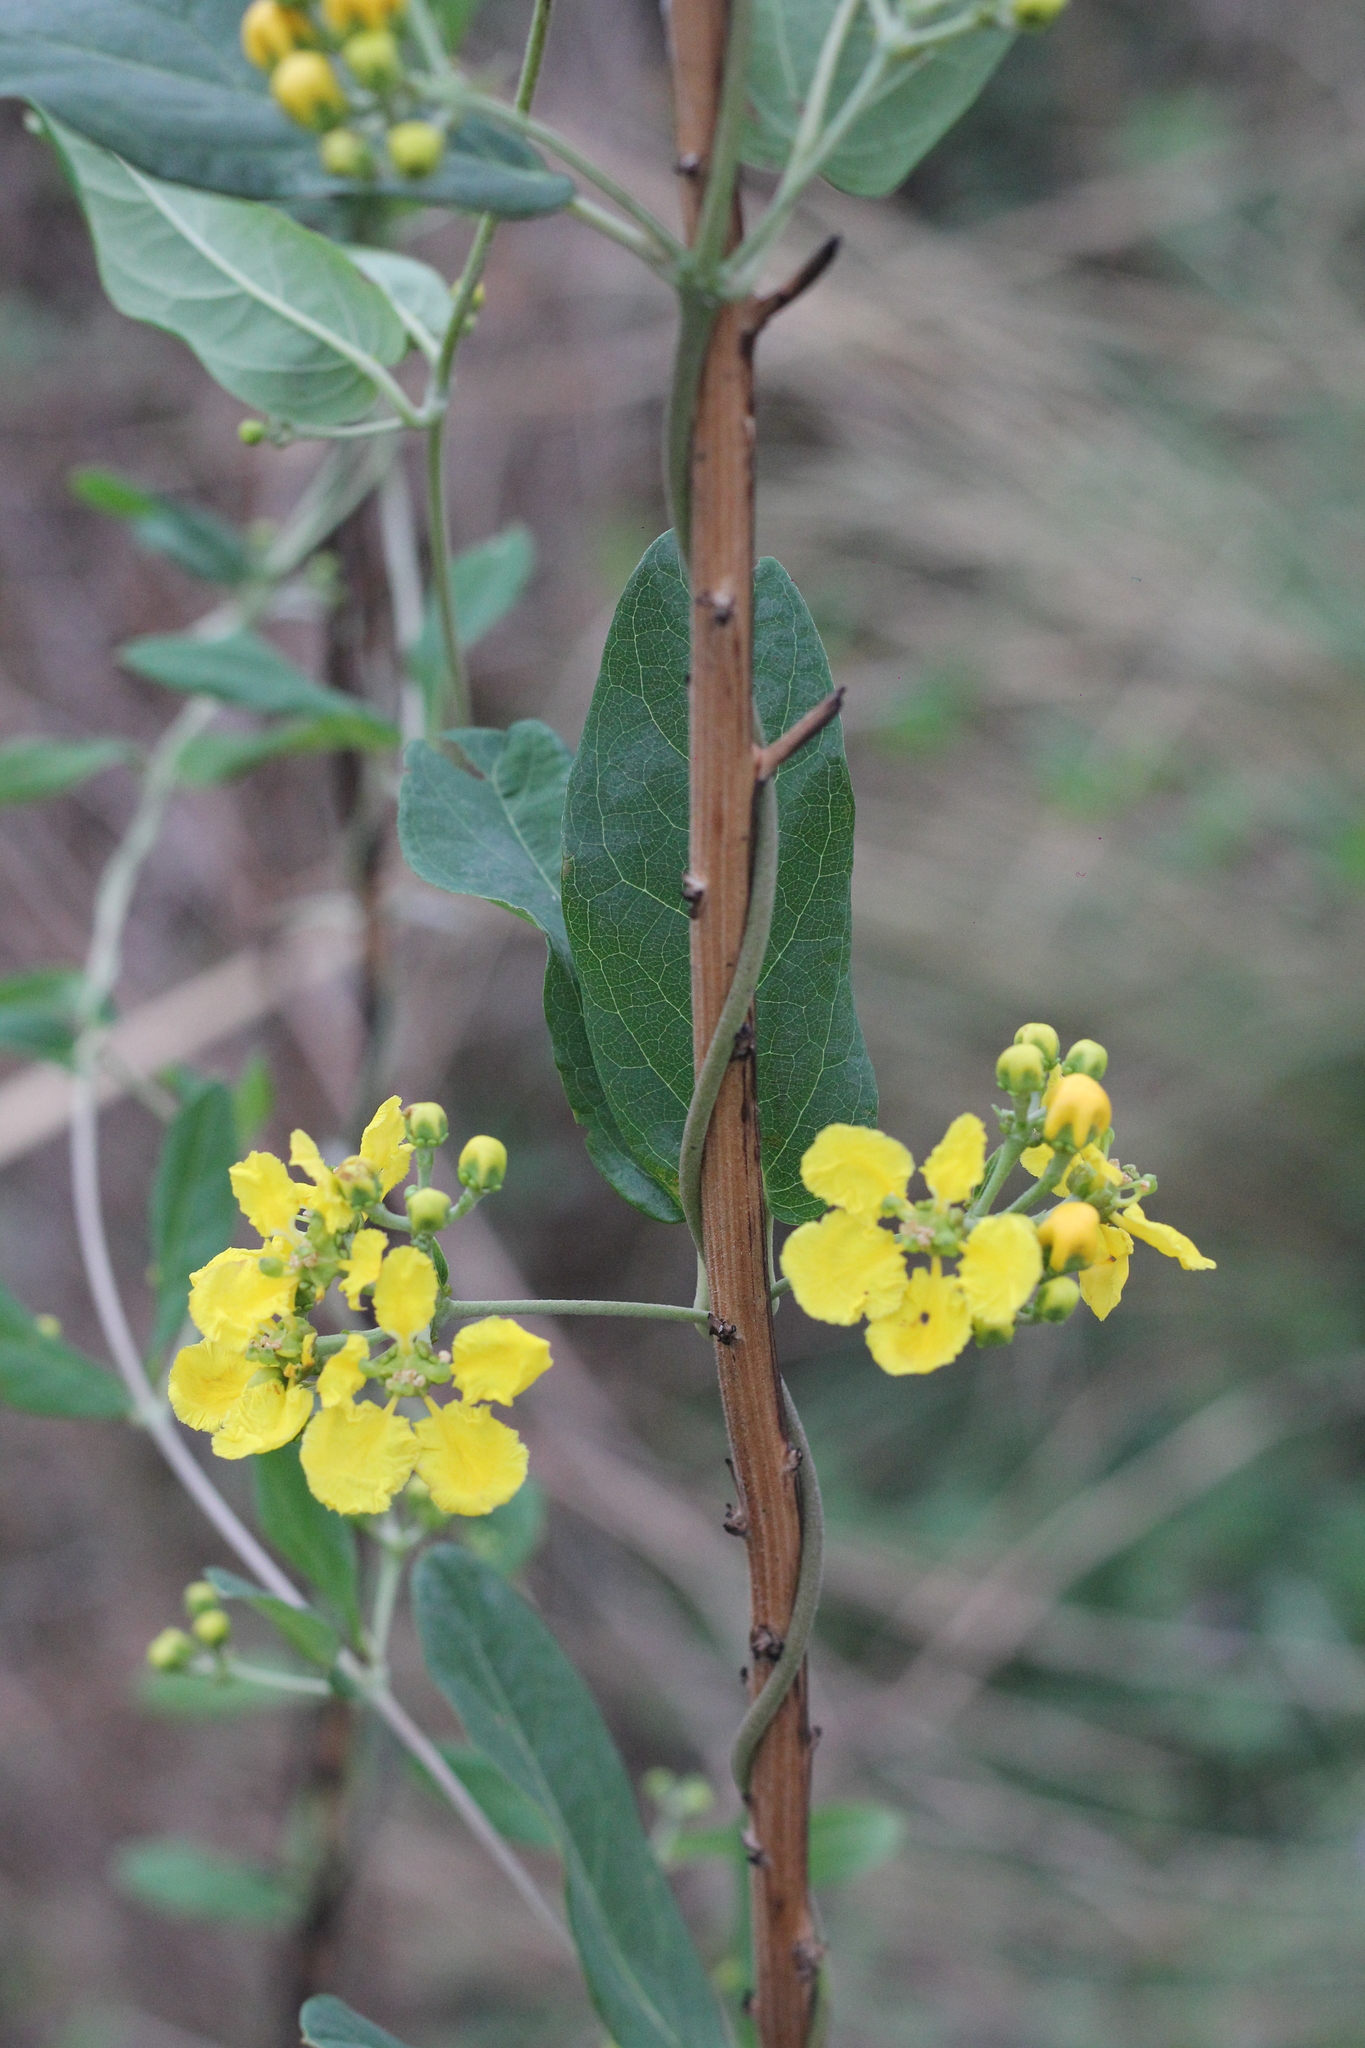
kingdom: Plantae
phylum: Tracheophyta
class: Magnoliopsida
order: Malpighiales
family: Malpighiaceae
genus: Janusia
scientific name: Janusia guaranitica
